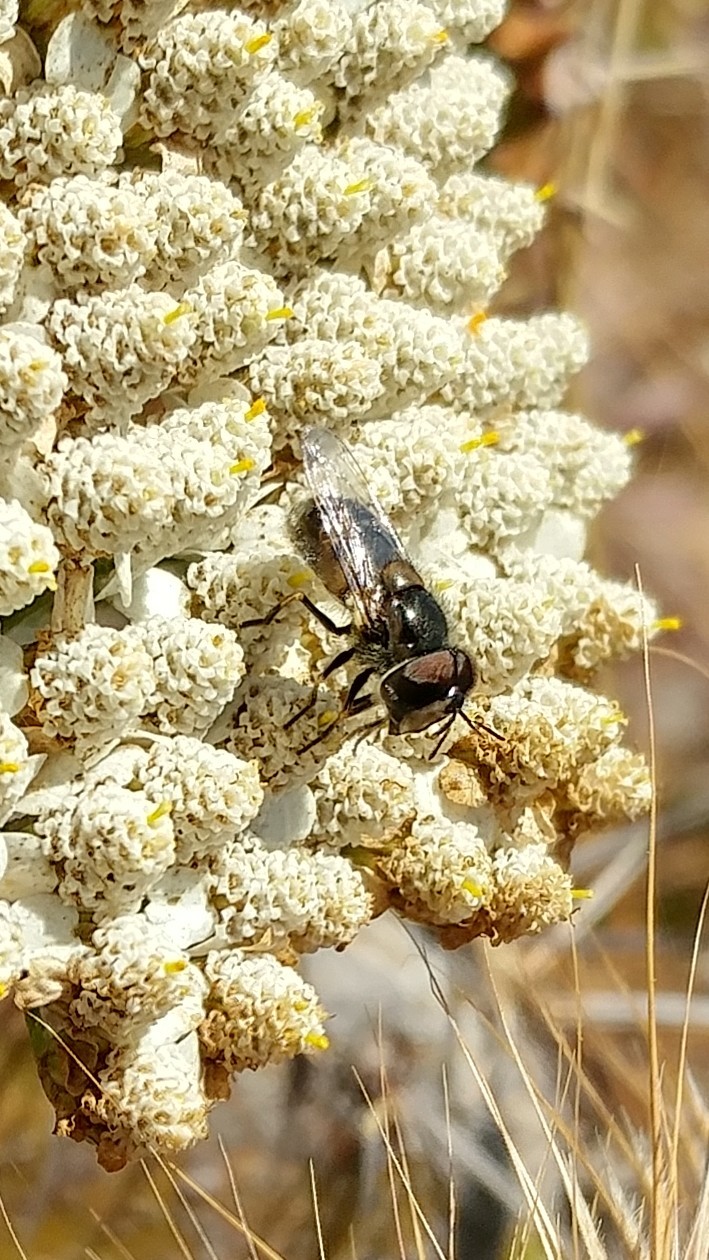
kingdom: Animalia
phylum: Arthropoda
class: Insecta
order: Diptera
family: Syrphidae
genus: Copestylum
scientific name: Copestylum lentum
